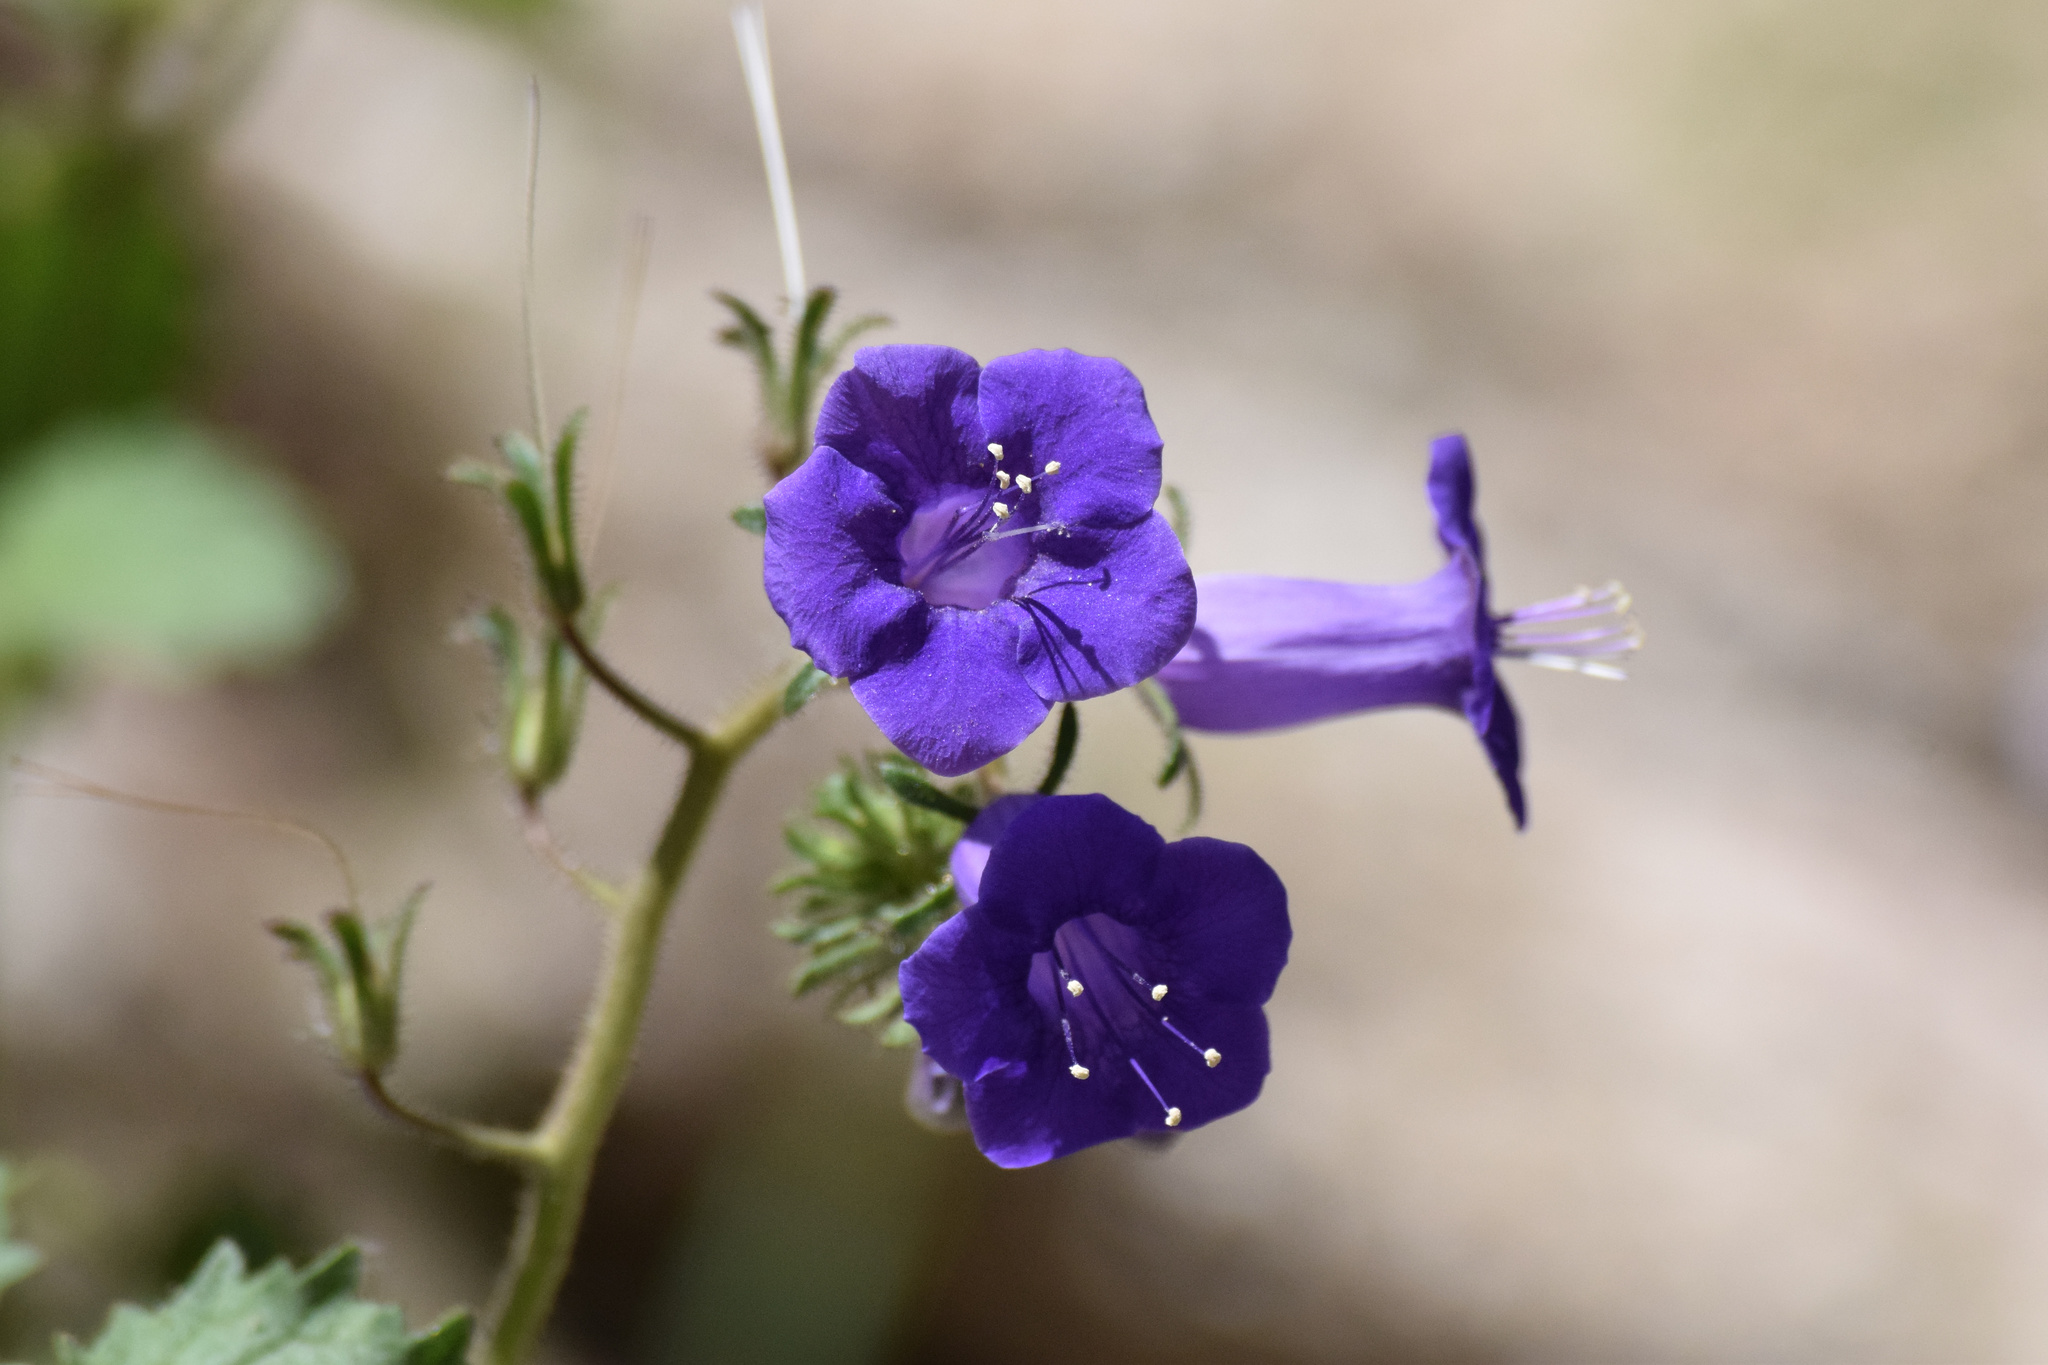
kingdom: Plantae
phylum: Tracheophyta
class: Magnoliopsida
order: Boraginales
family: Hydrophyllaceae
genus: Phacelia
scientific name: Phacelia minor
